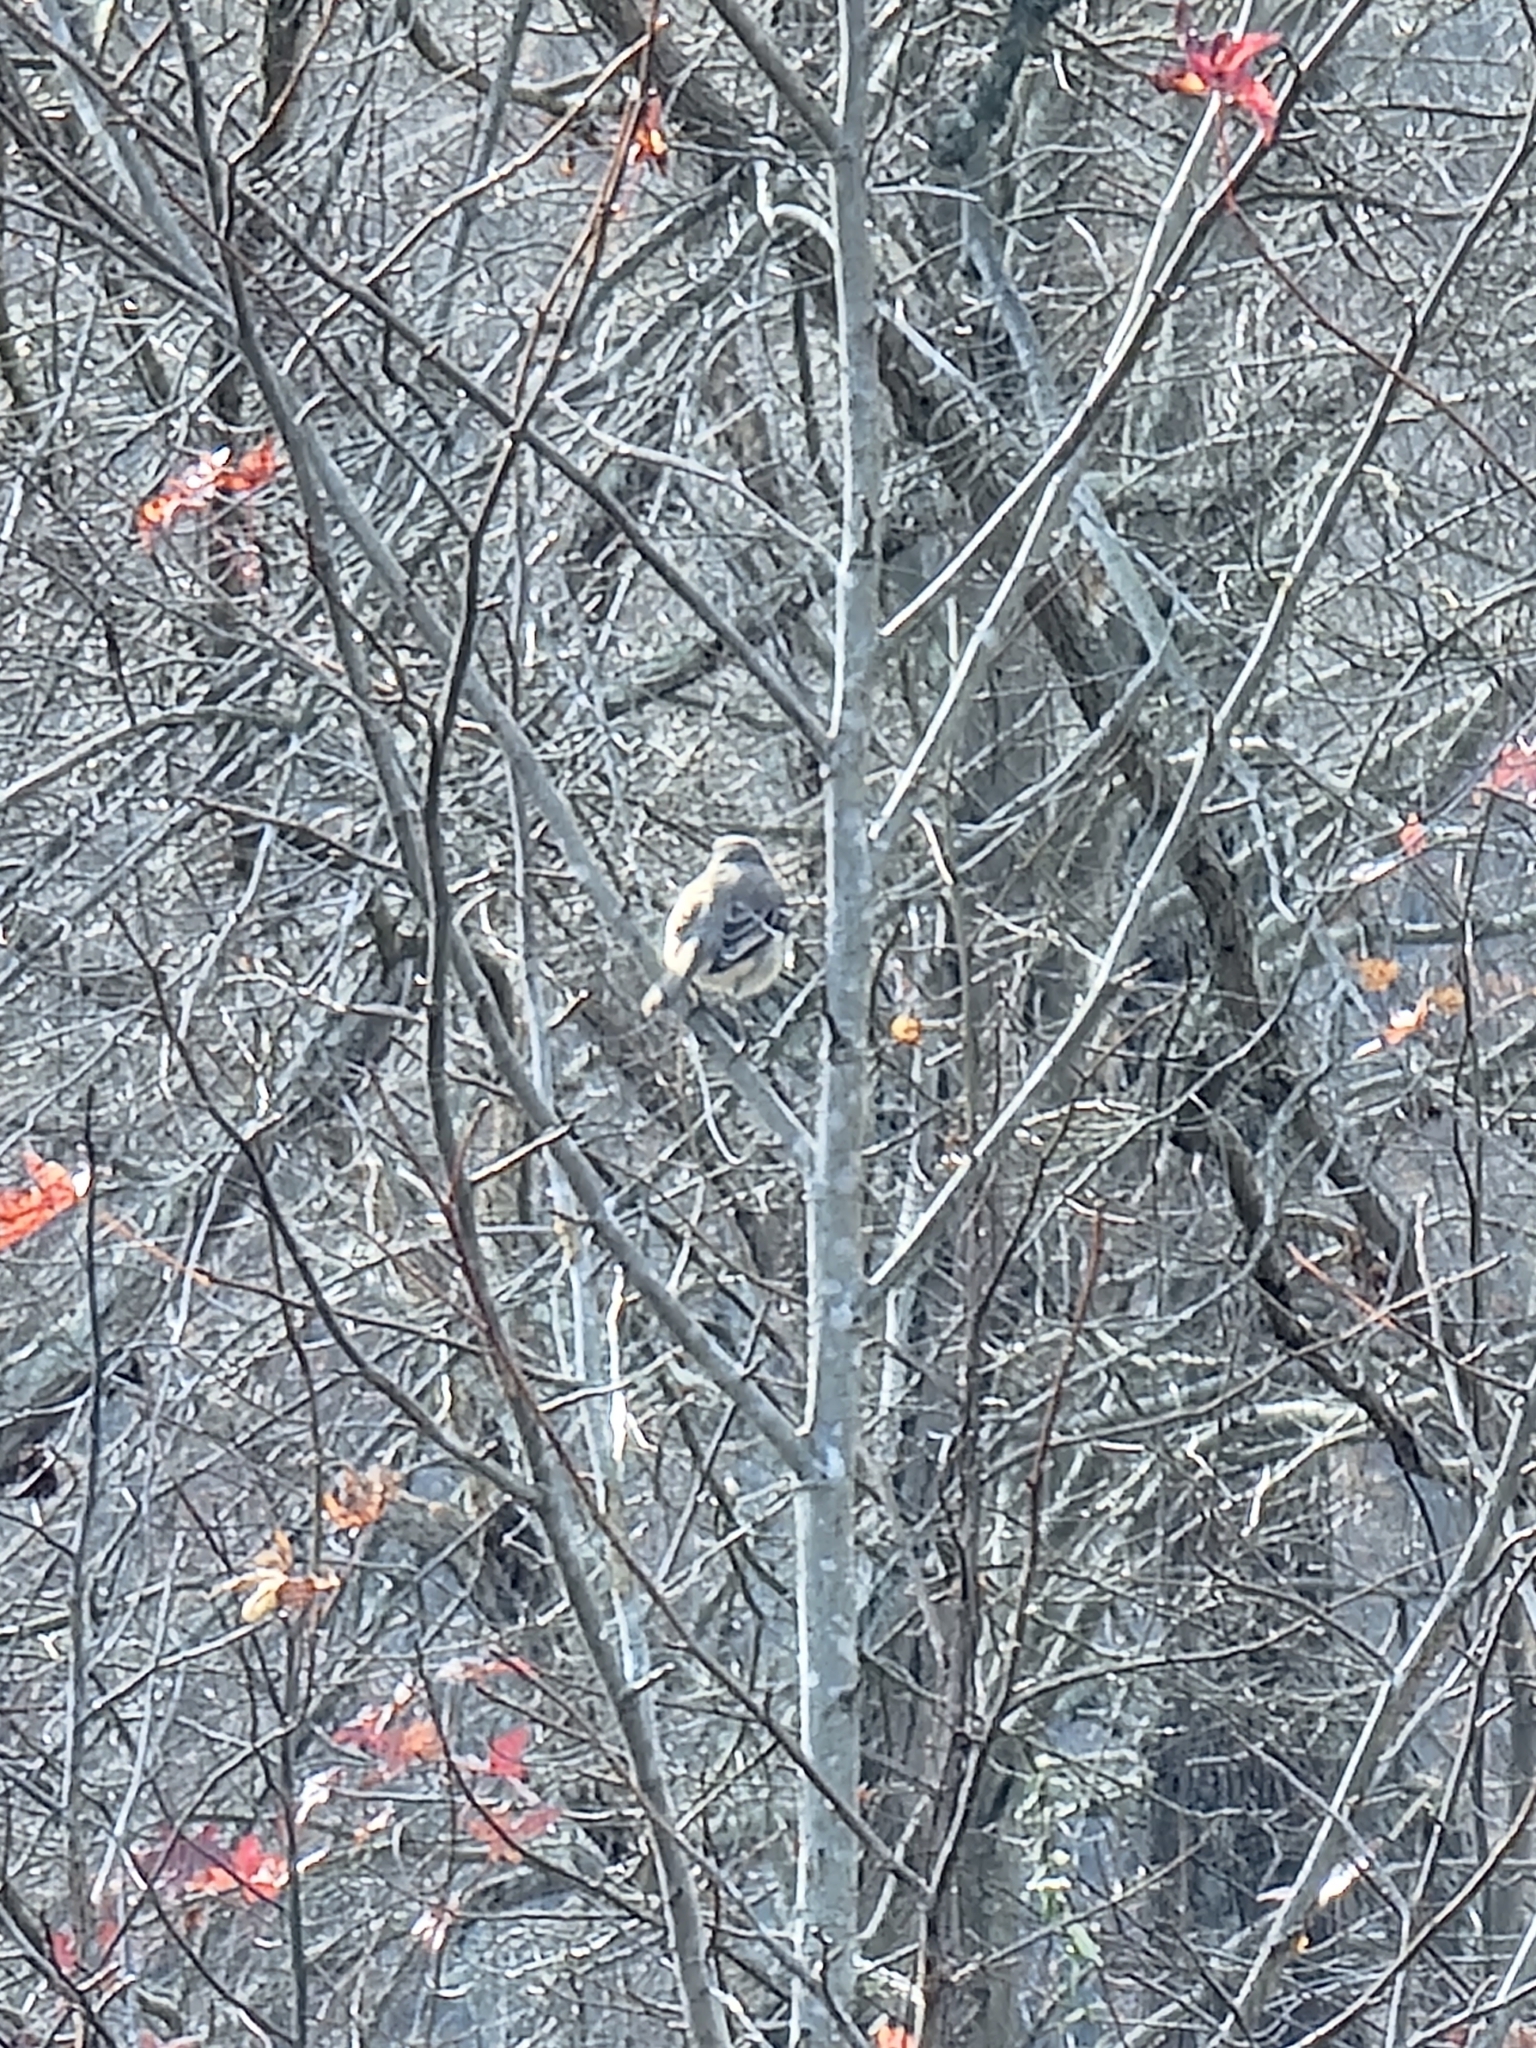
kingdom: Animalia
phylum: Chordata
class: Aves
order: Passeriformes
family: Mimidae
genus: Mimus
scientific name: Mimus polyglottos
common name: Northern mockingbird
